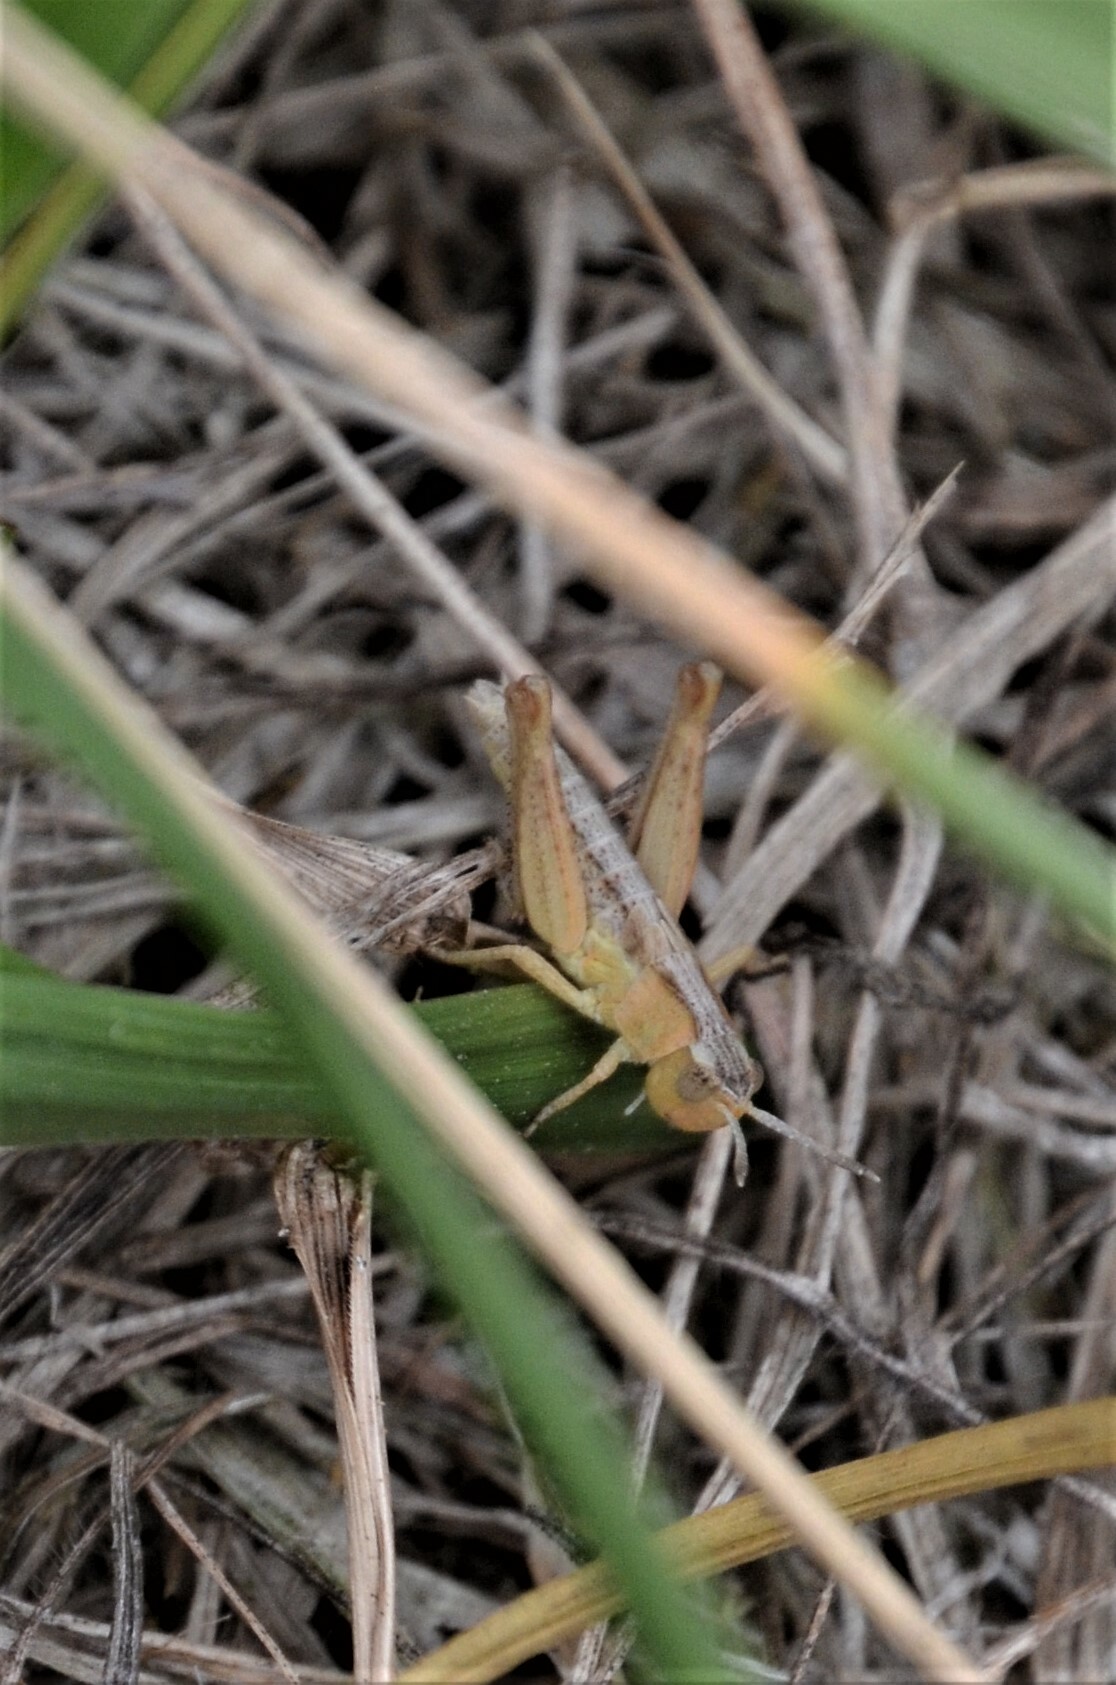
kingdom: Animalia
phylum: Arthropoda
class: Insecta
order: Orthoptera
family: Acrididae
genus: Gomphocerippus
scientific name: Gomphocerippus rufus
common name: Rufous grasshopper
